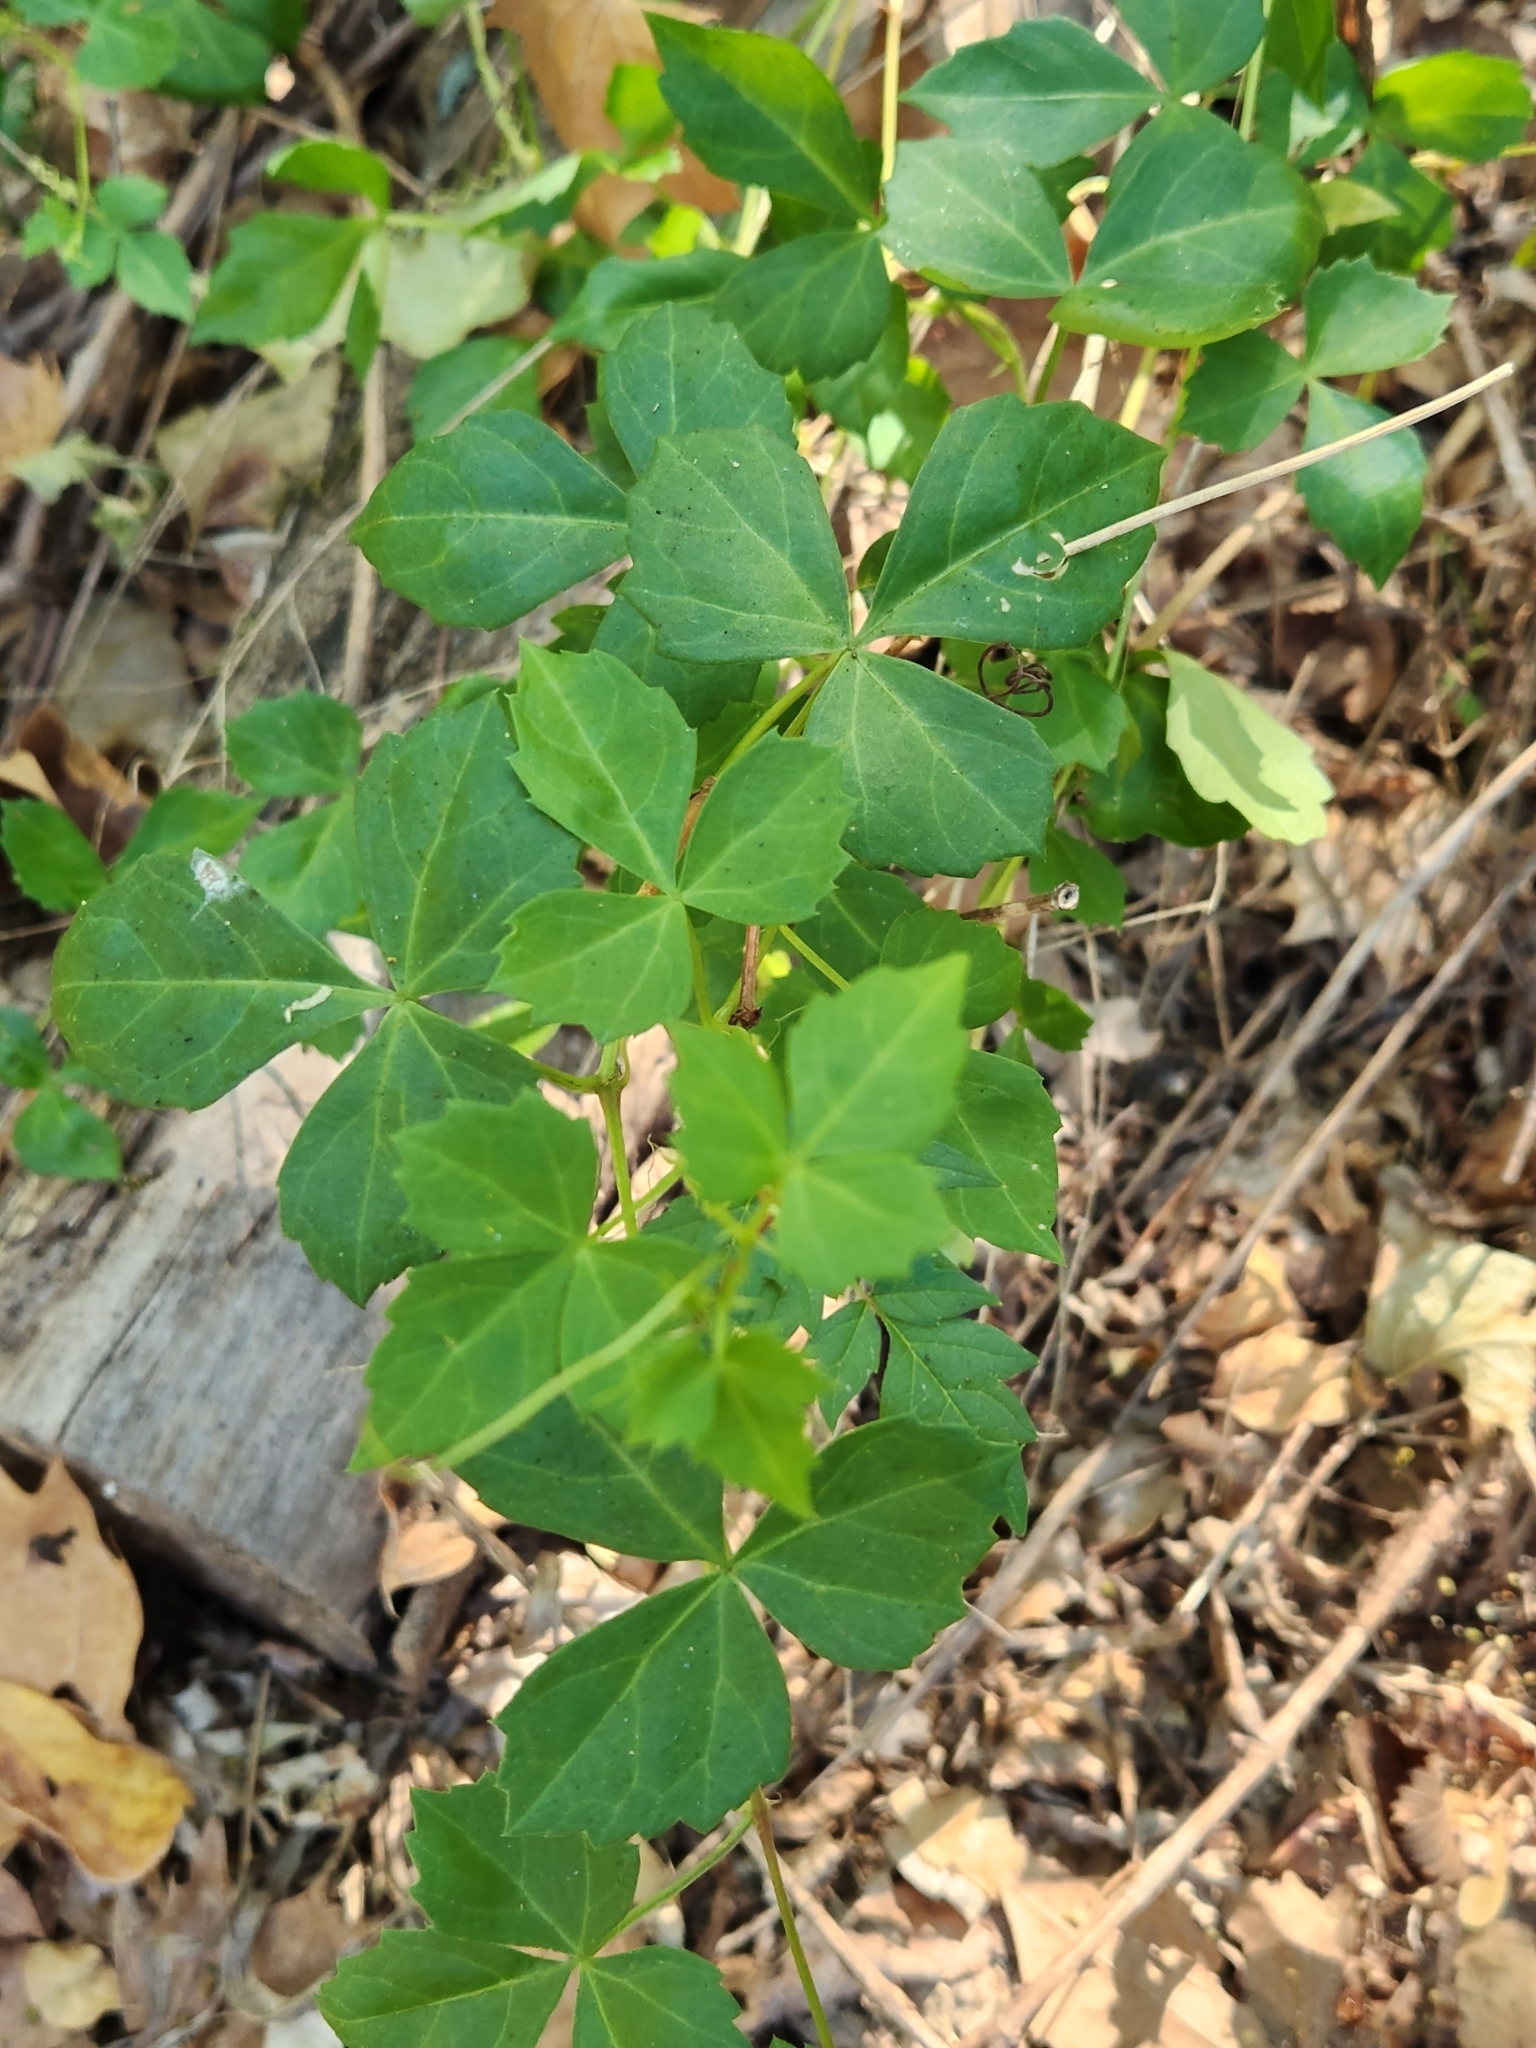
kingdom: Plantae
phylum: Tracheophyta
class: Magnoliopsida
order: Vitales
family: Vitaceae
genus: Cissus
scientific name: Cissus trifoliata
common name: Vine-sorrel
